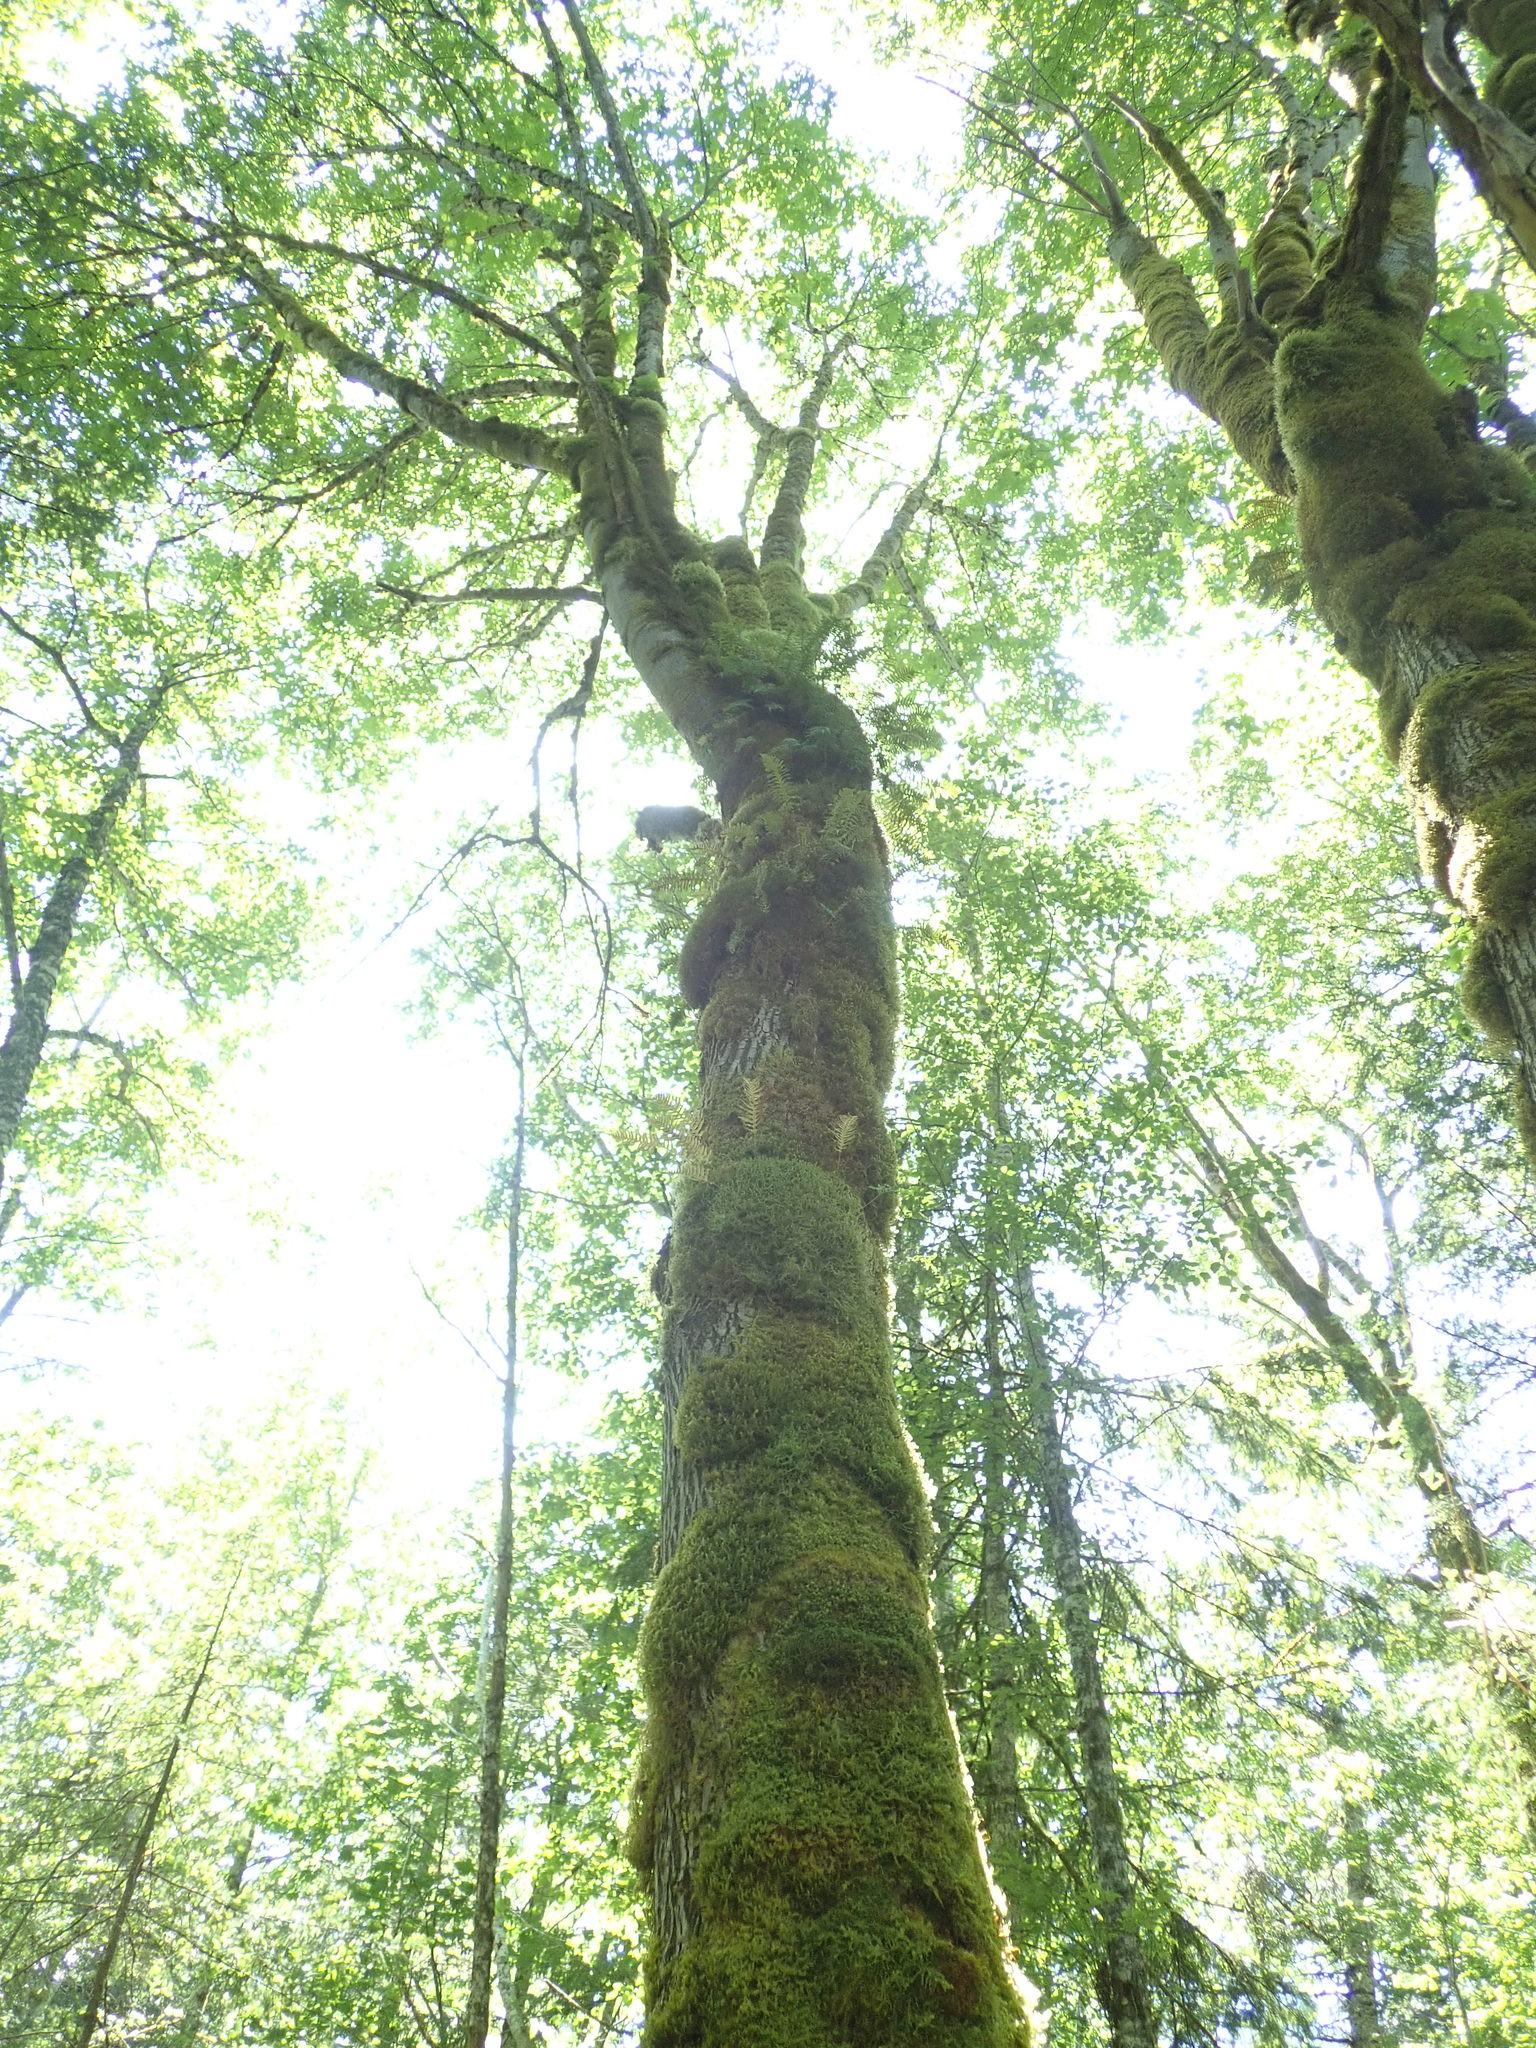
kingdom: Plantae
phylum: Tracheophyta
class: Magnoliopsida
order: Sapindales
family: Sapindaceae
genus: Acer
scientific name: Acer macrophyllum
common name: Oregon maple
